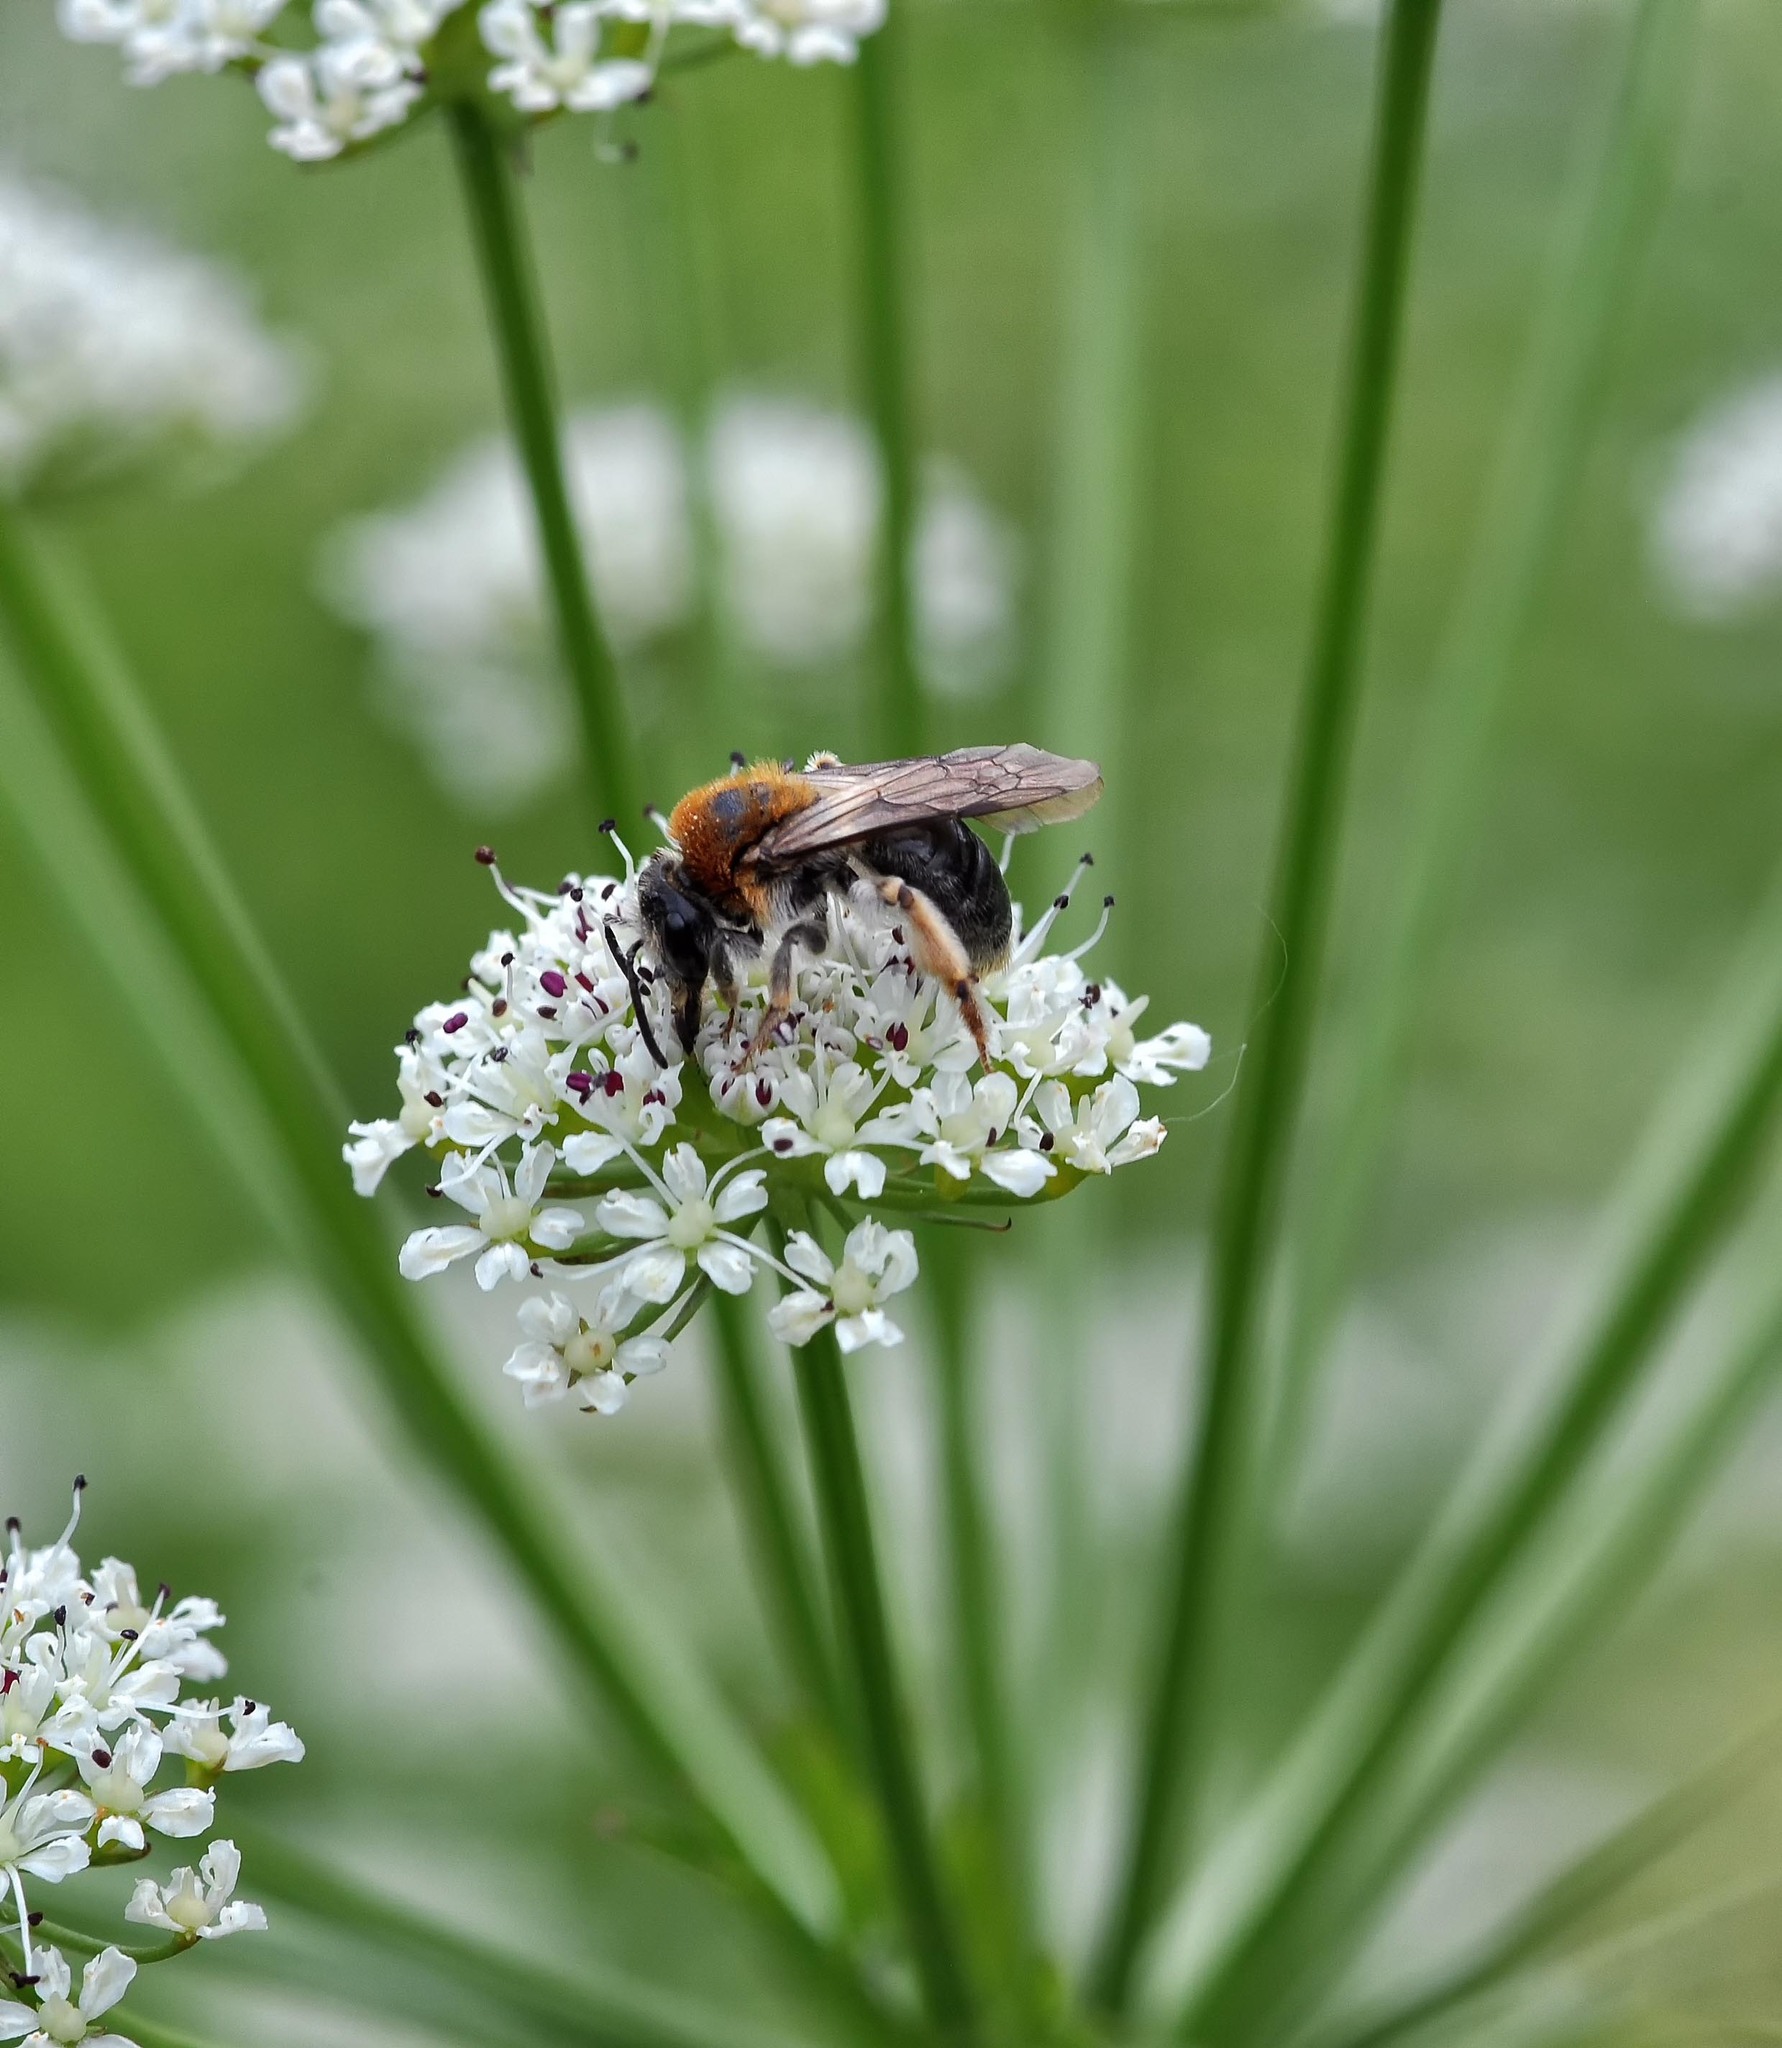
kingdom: Animalia
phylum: Arthropoda
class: Insecta
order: Hymenoptera
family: Andrenidae
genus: Andrena
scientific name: Andrena haemorrhoa
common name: Early mining bee
